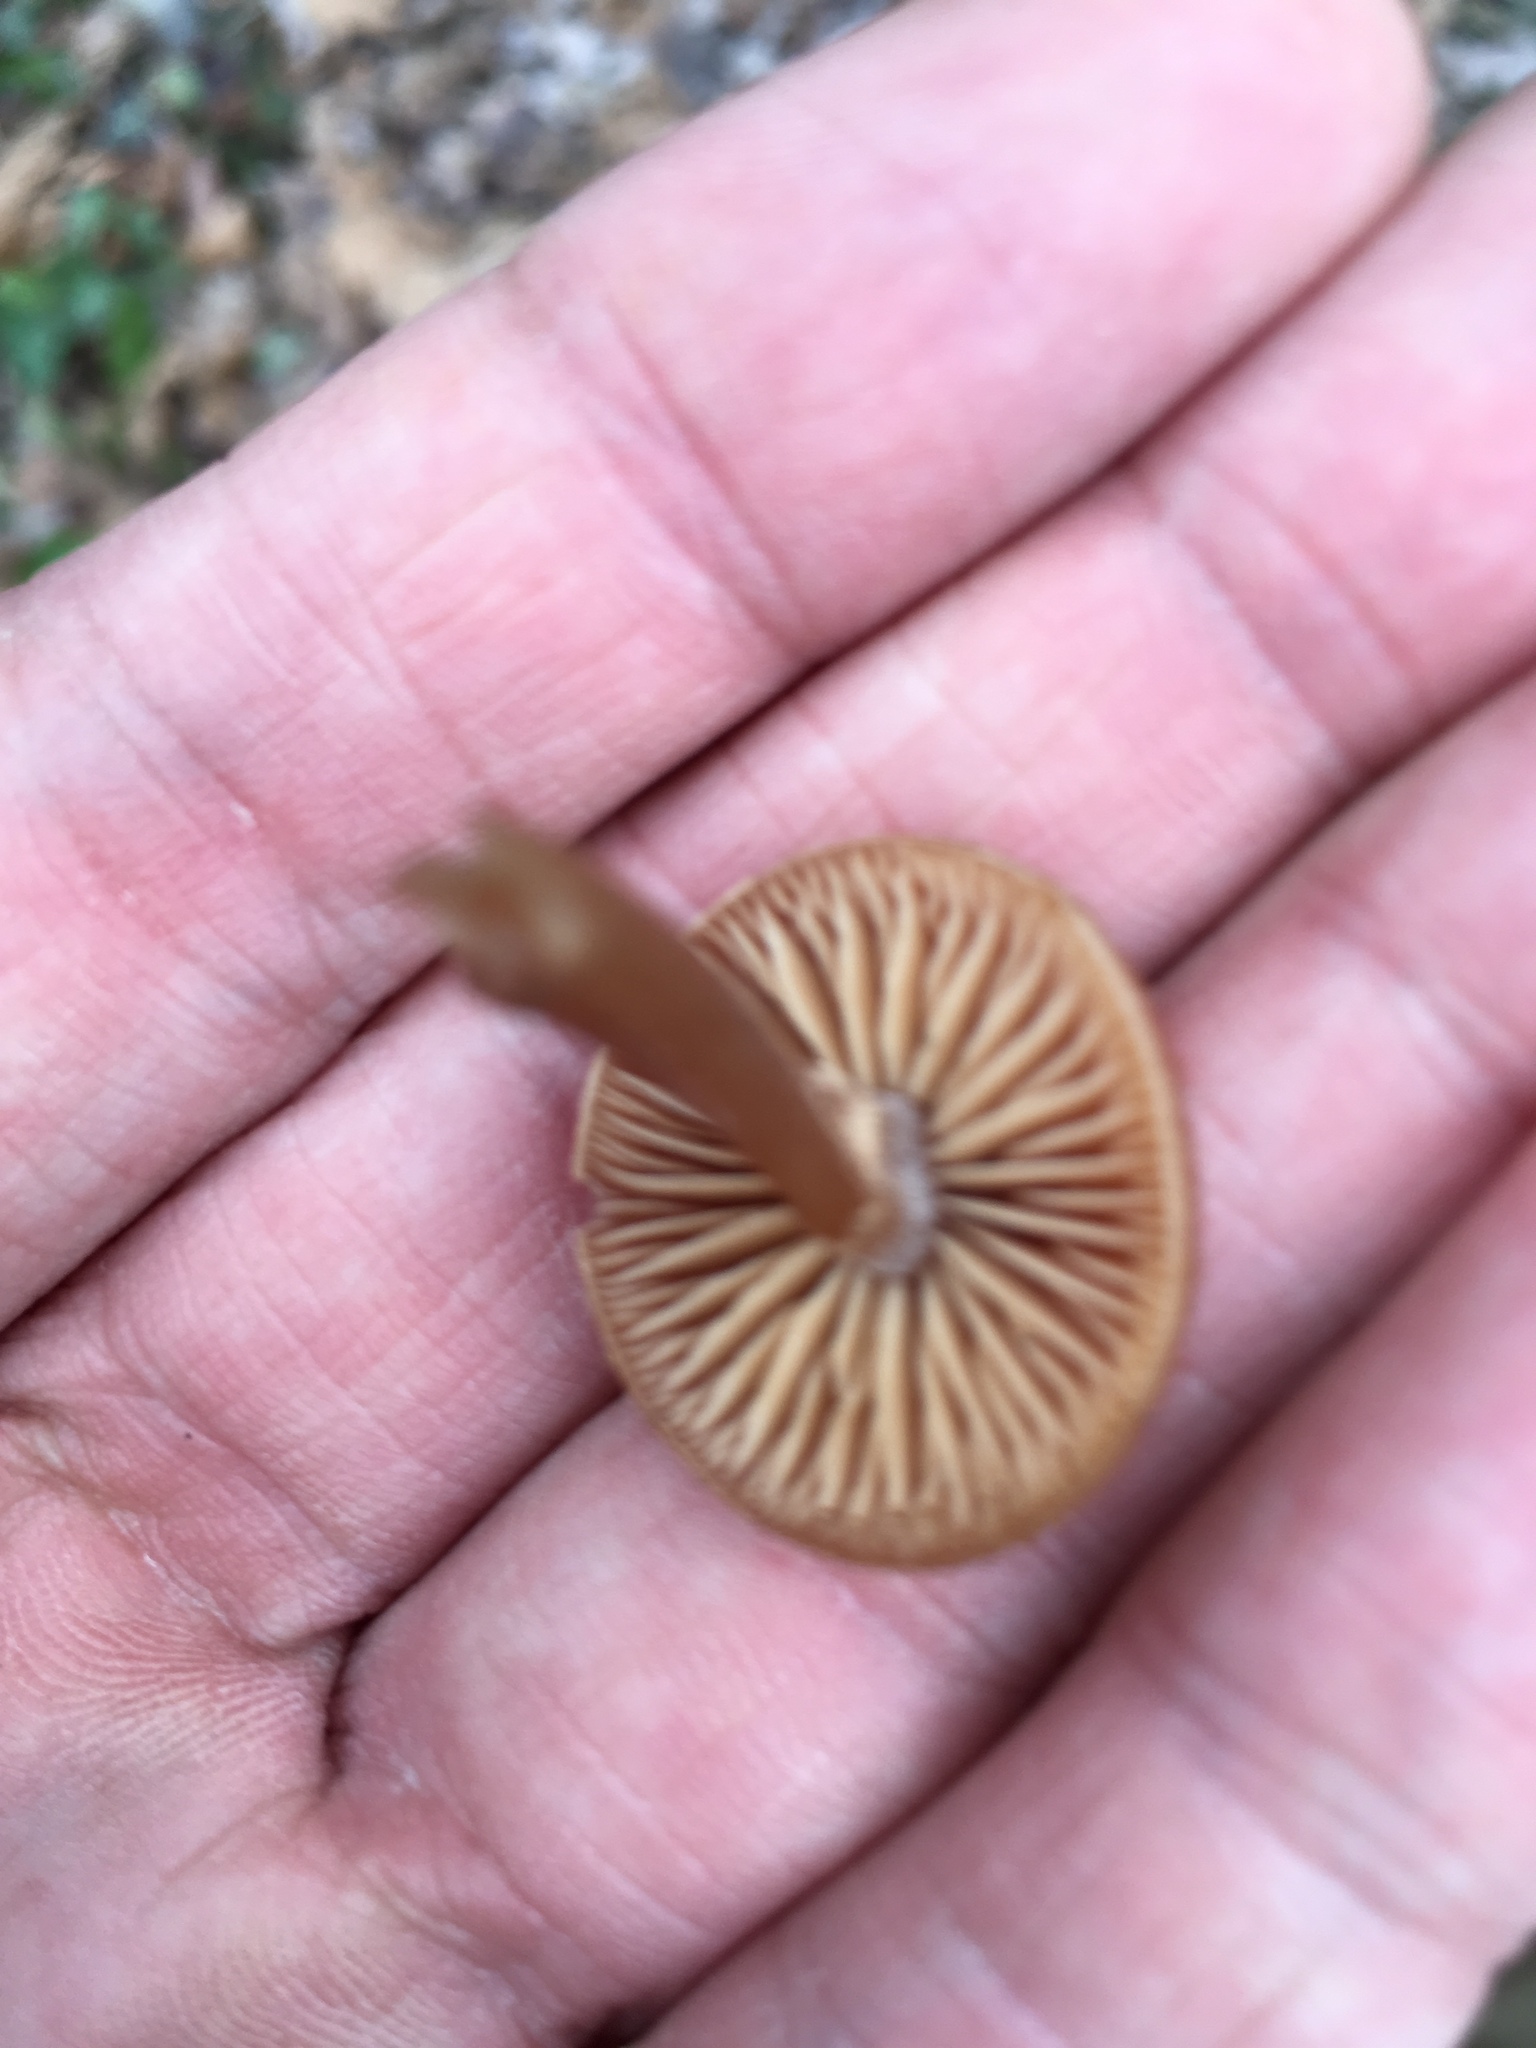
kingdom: Fungi
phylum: Basidiomycota
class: Agaricomycetes
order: Agaricales
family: Tubariaceae
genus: Tubaria
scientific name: Tubaria furfuracea
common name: Scurfy twiglet
